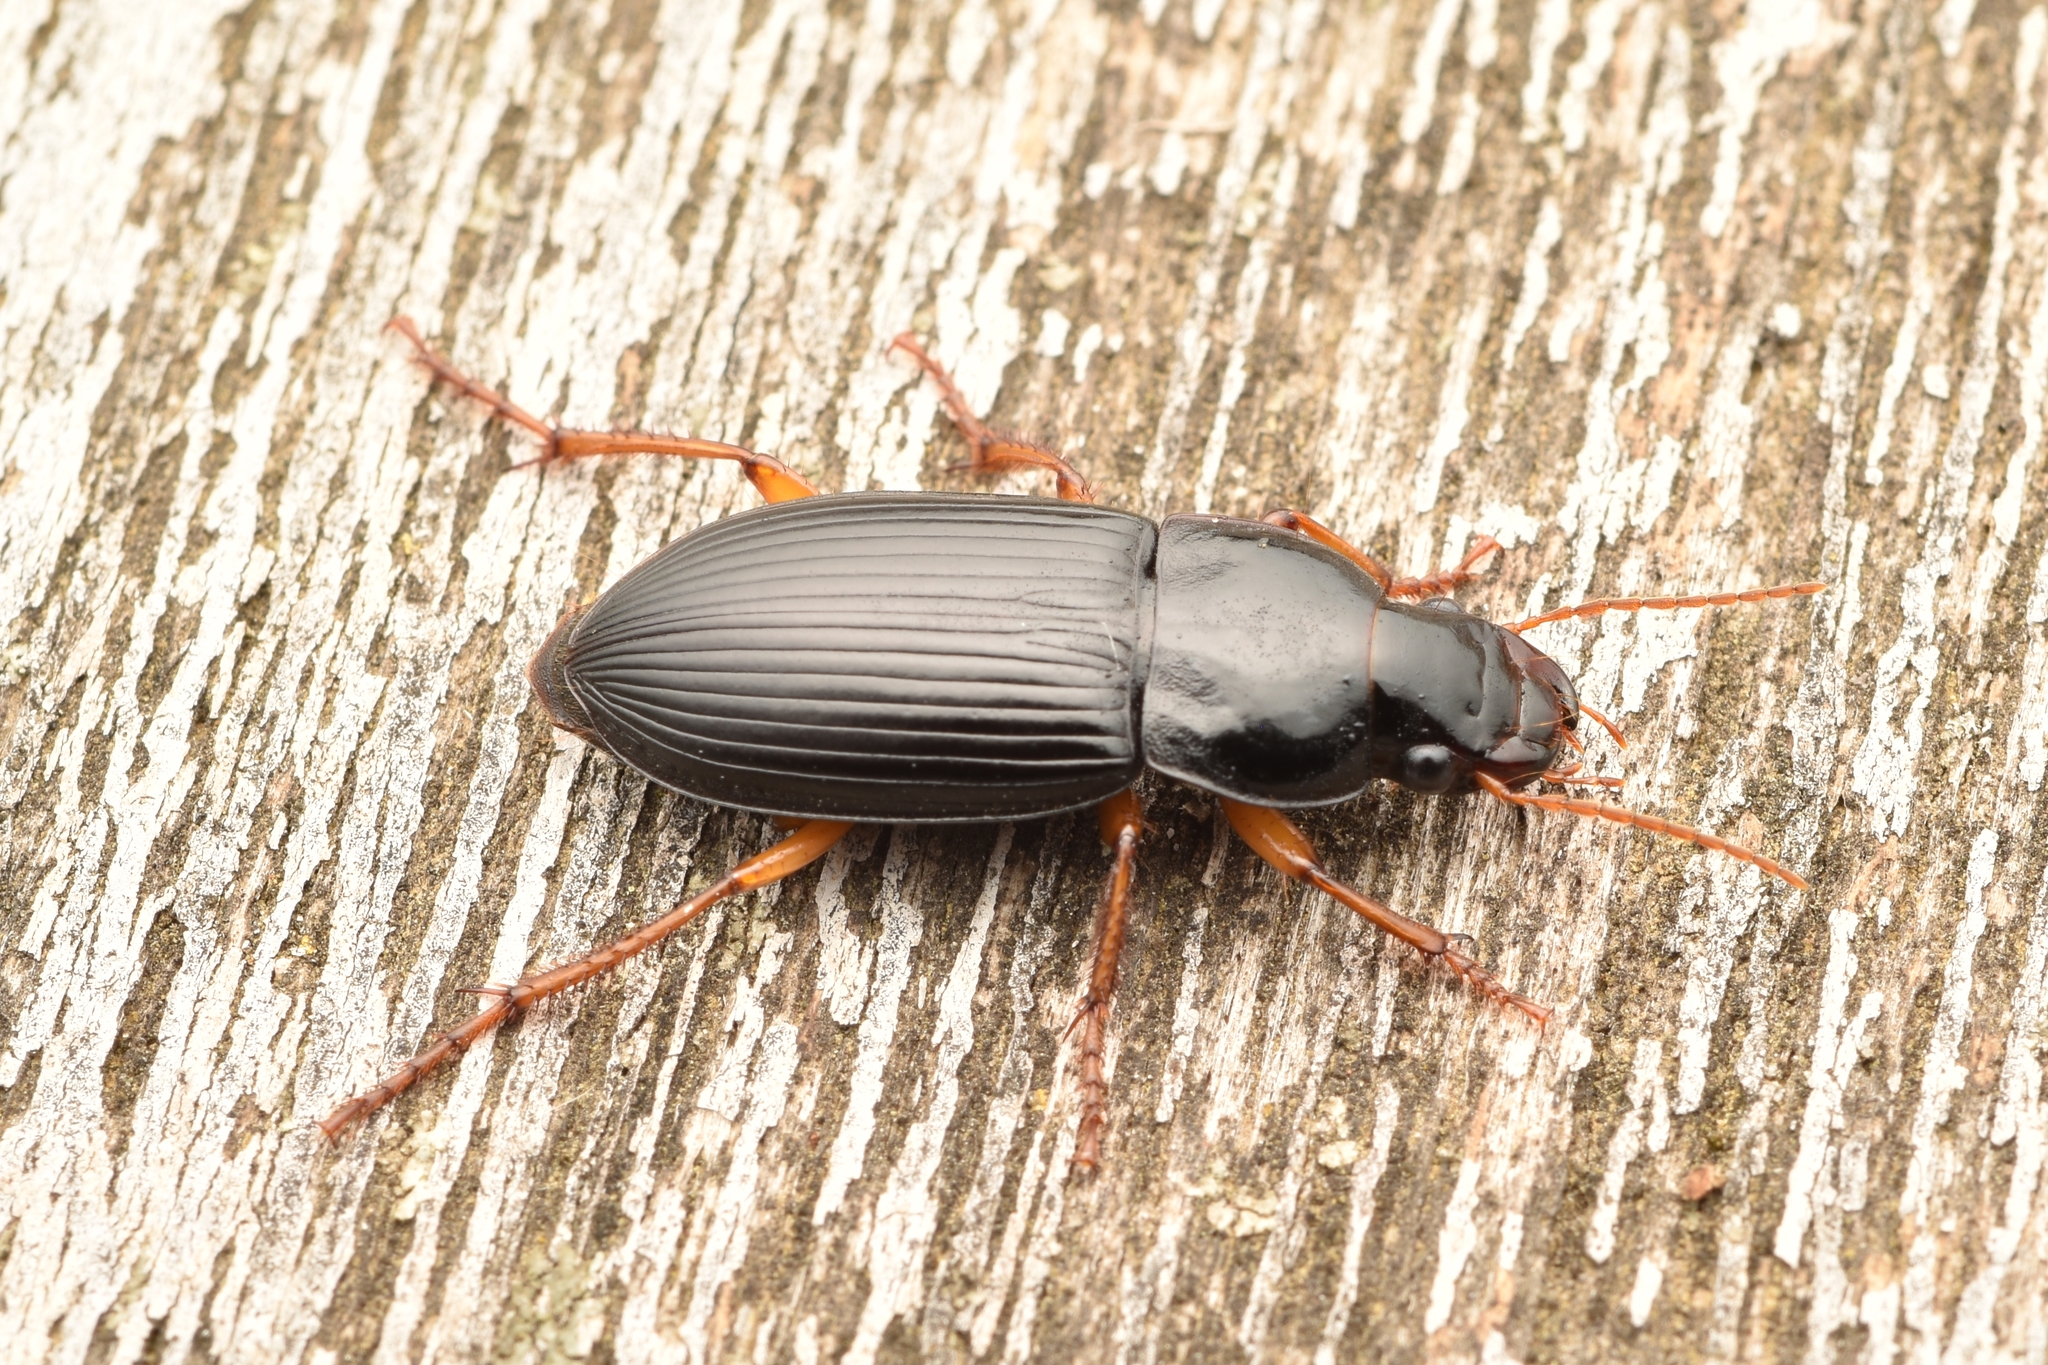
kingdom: Animalia
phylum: Arthropoda
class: Insecta
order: Coleoptera
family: Carabidae
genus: Harpalus
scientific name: Harpalus pensylvanicus
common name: Pennsylvania dingy ground beetle
